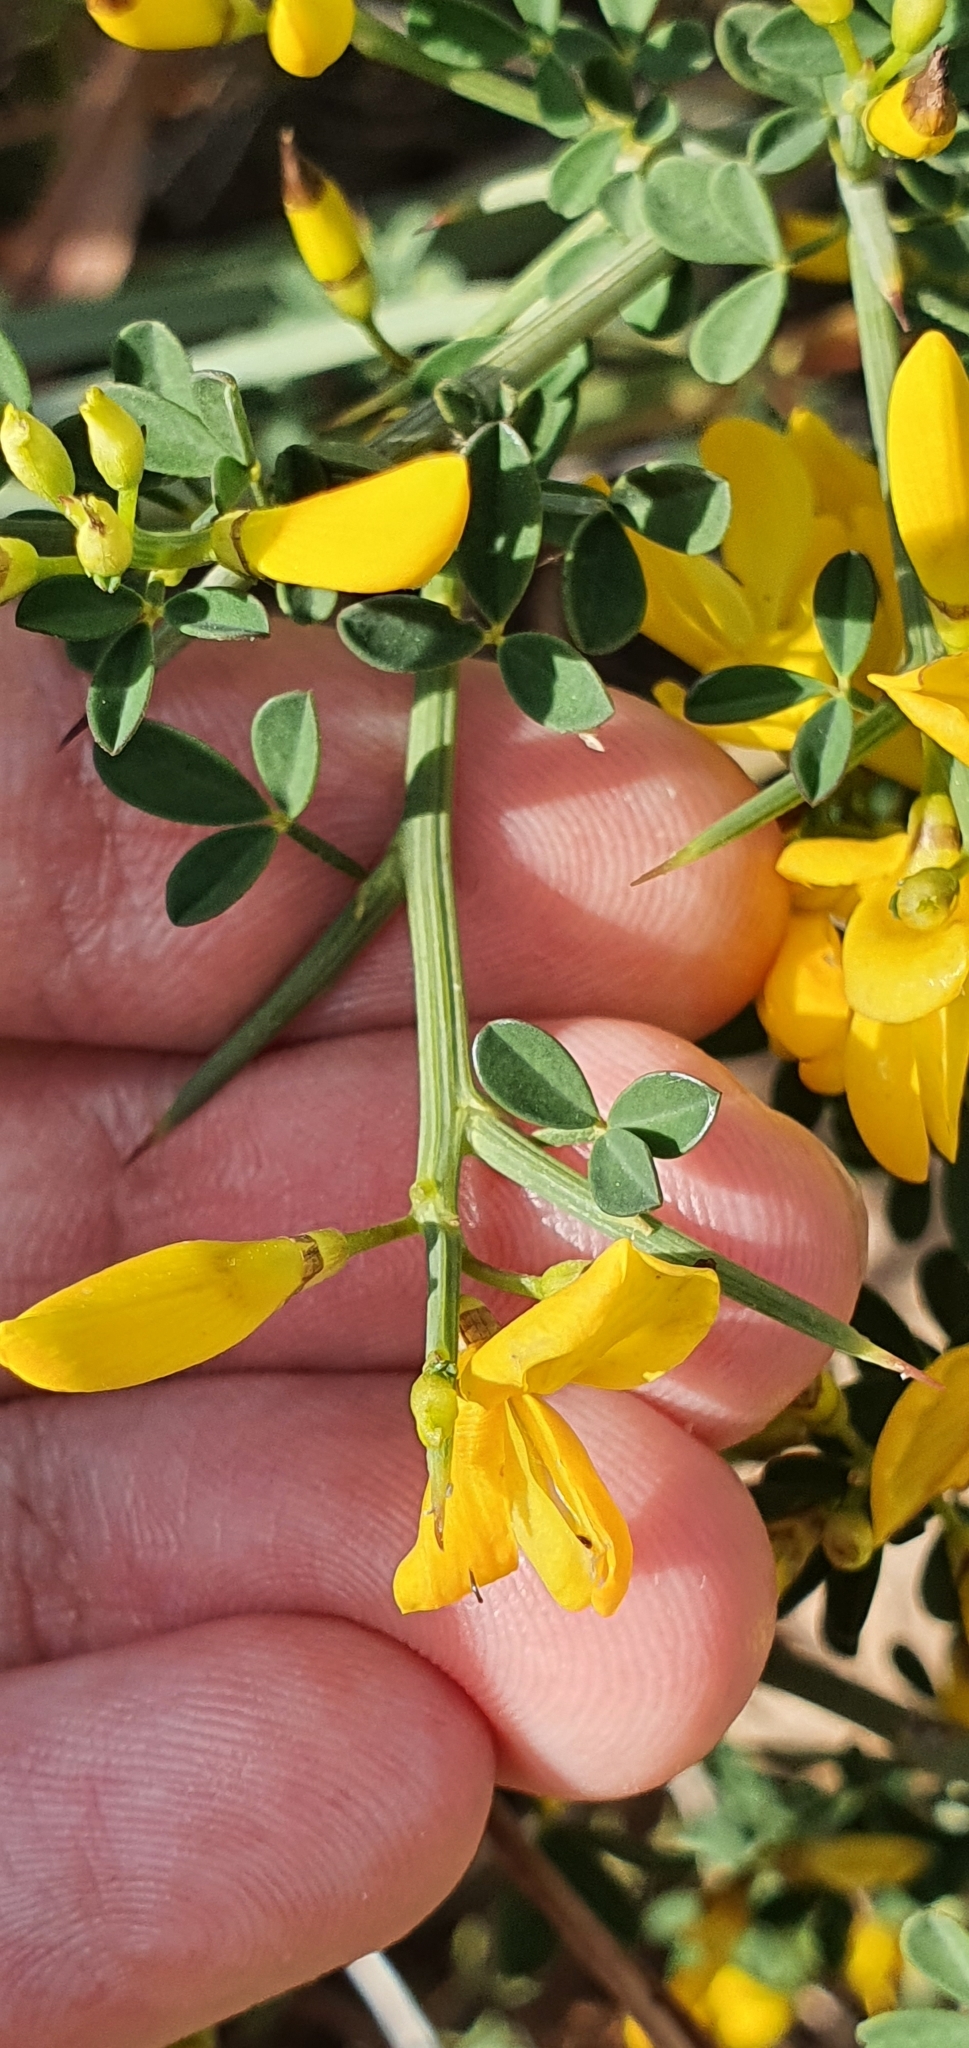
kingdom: Plantae
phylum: Tracheophyta
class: Magnoliopsida
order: Fabales
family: Fabaceae
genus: Calicotome
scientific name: Calicotome spinosa
